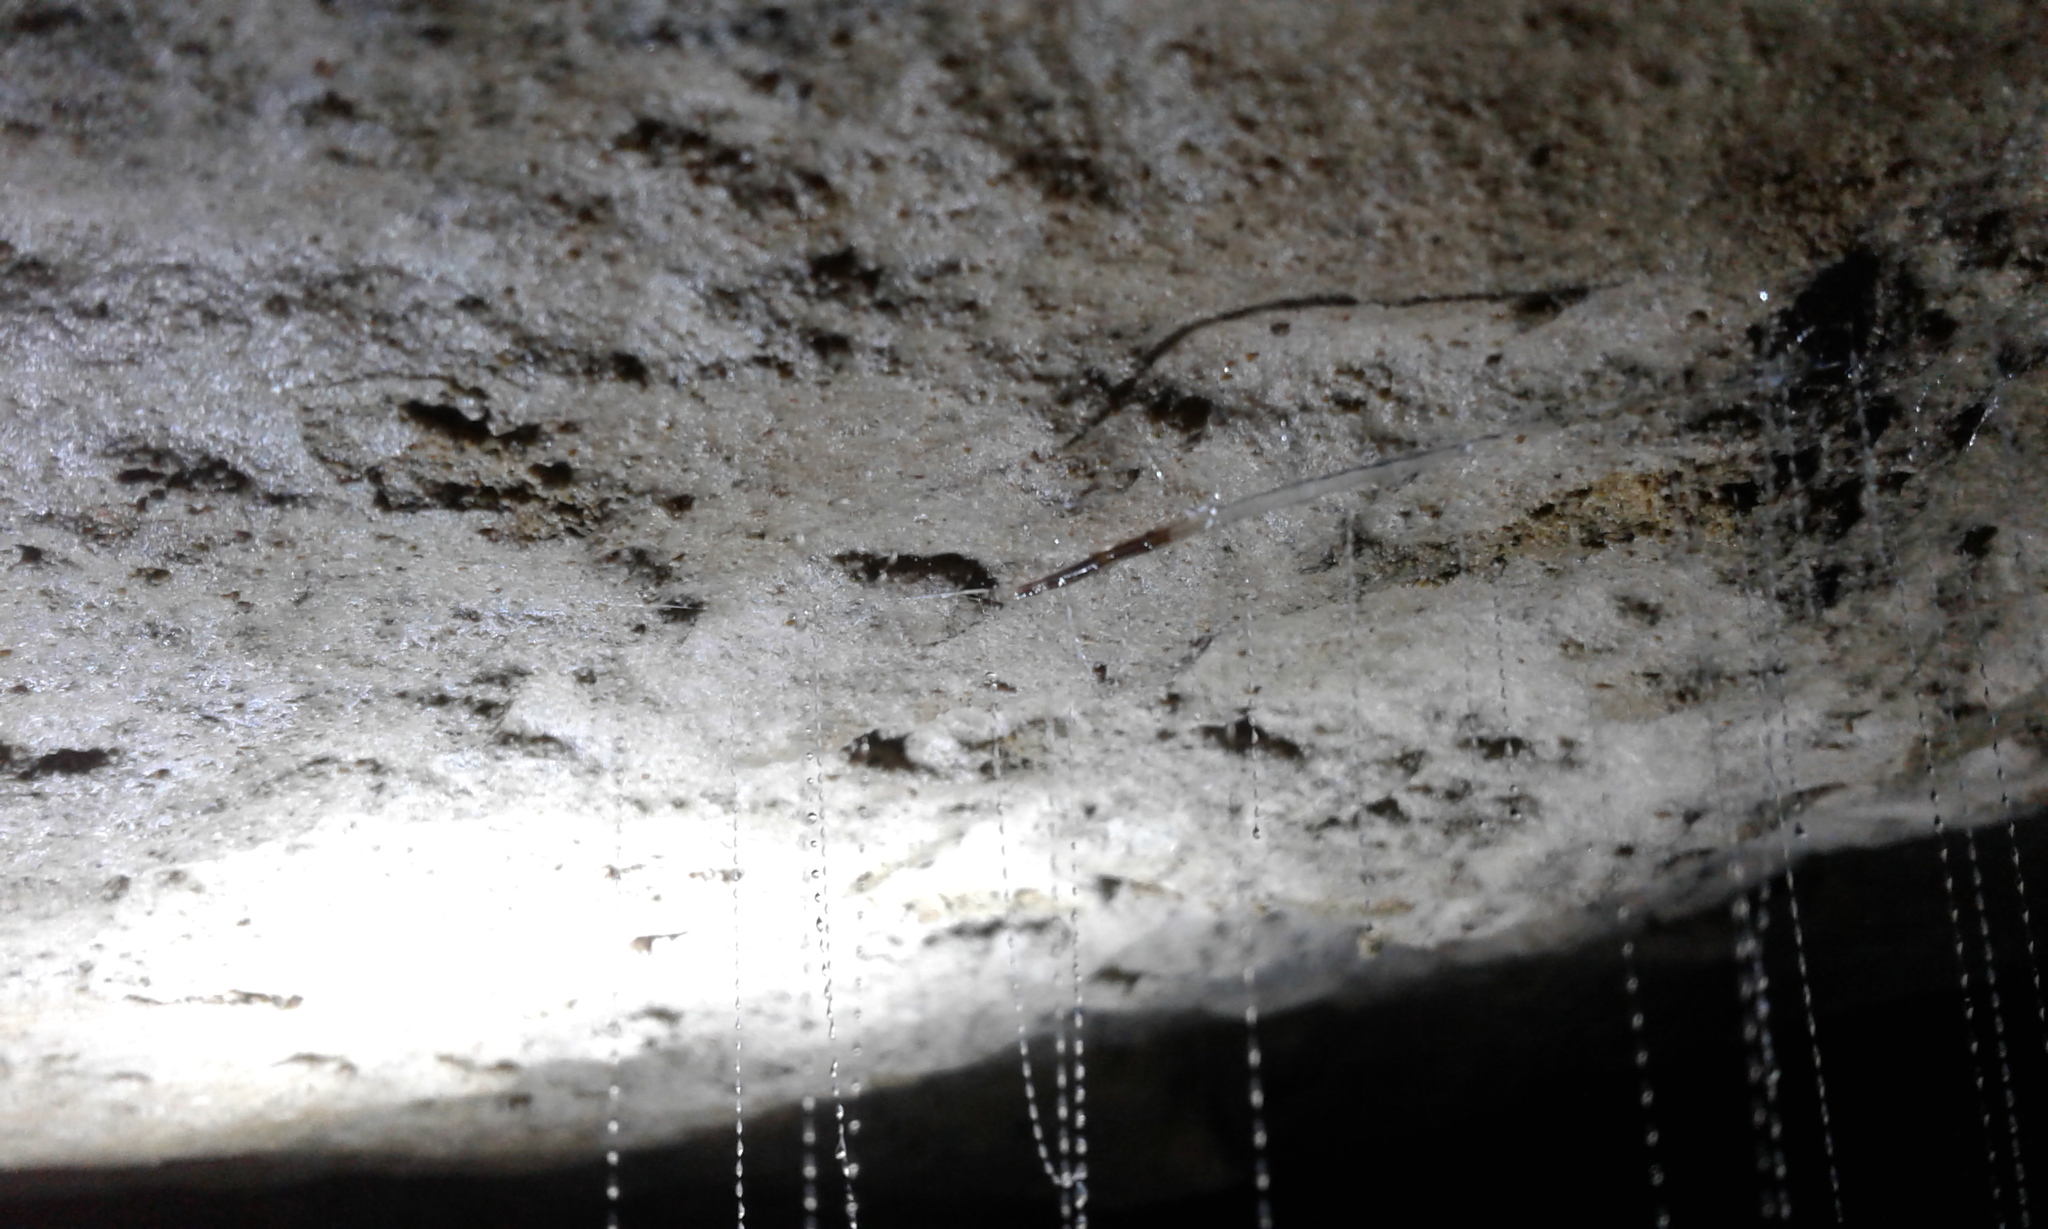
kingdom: Animalia
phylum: Arthropoda
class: Insecta
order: Diptera
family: Keroplatidae
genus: Arachnocampa
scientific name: Arachnocampa luminosa
